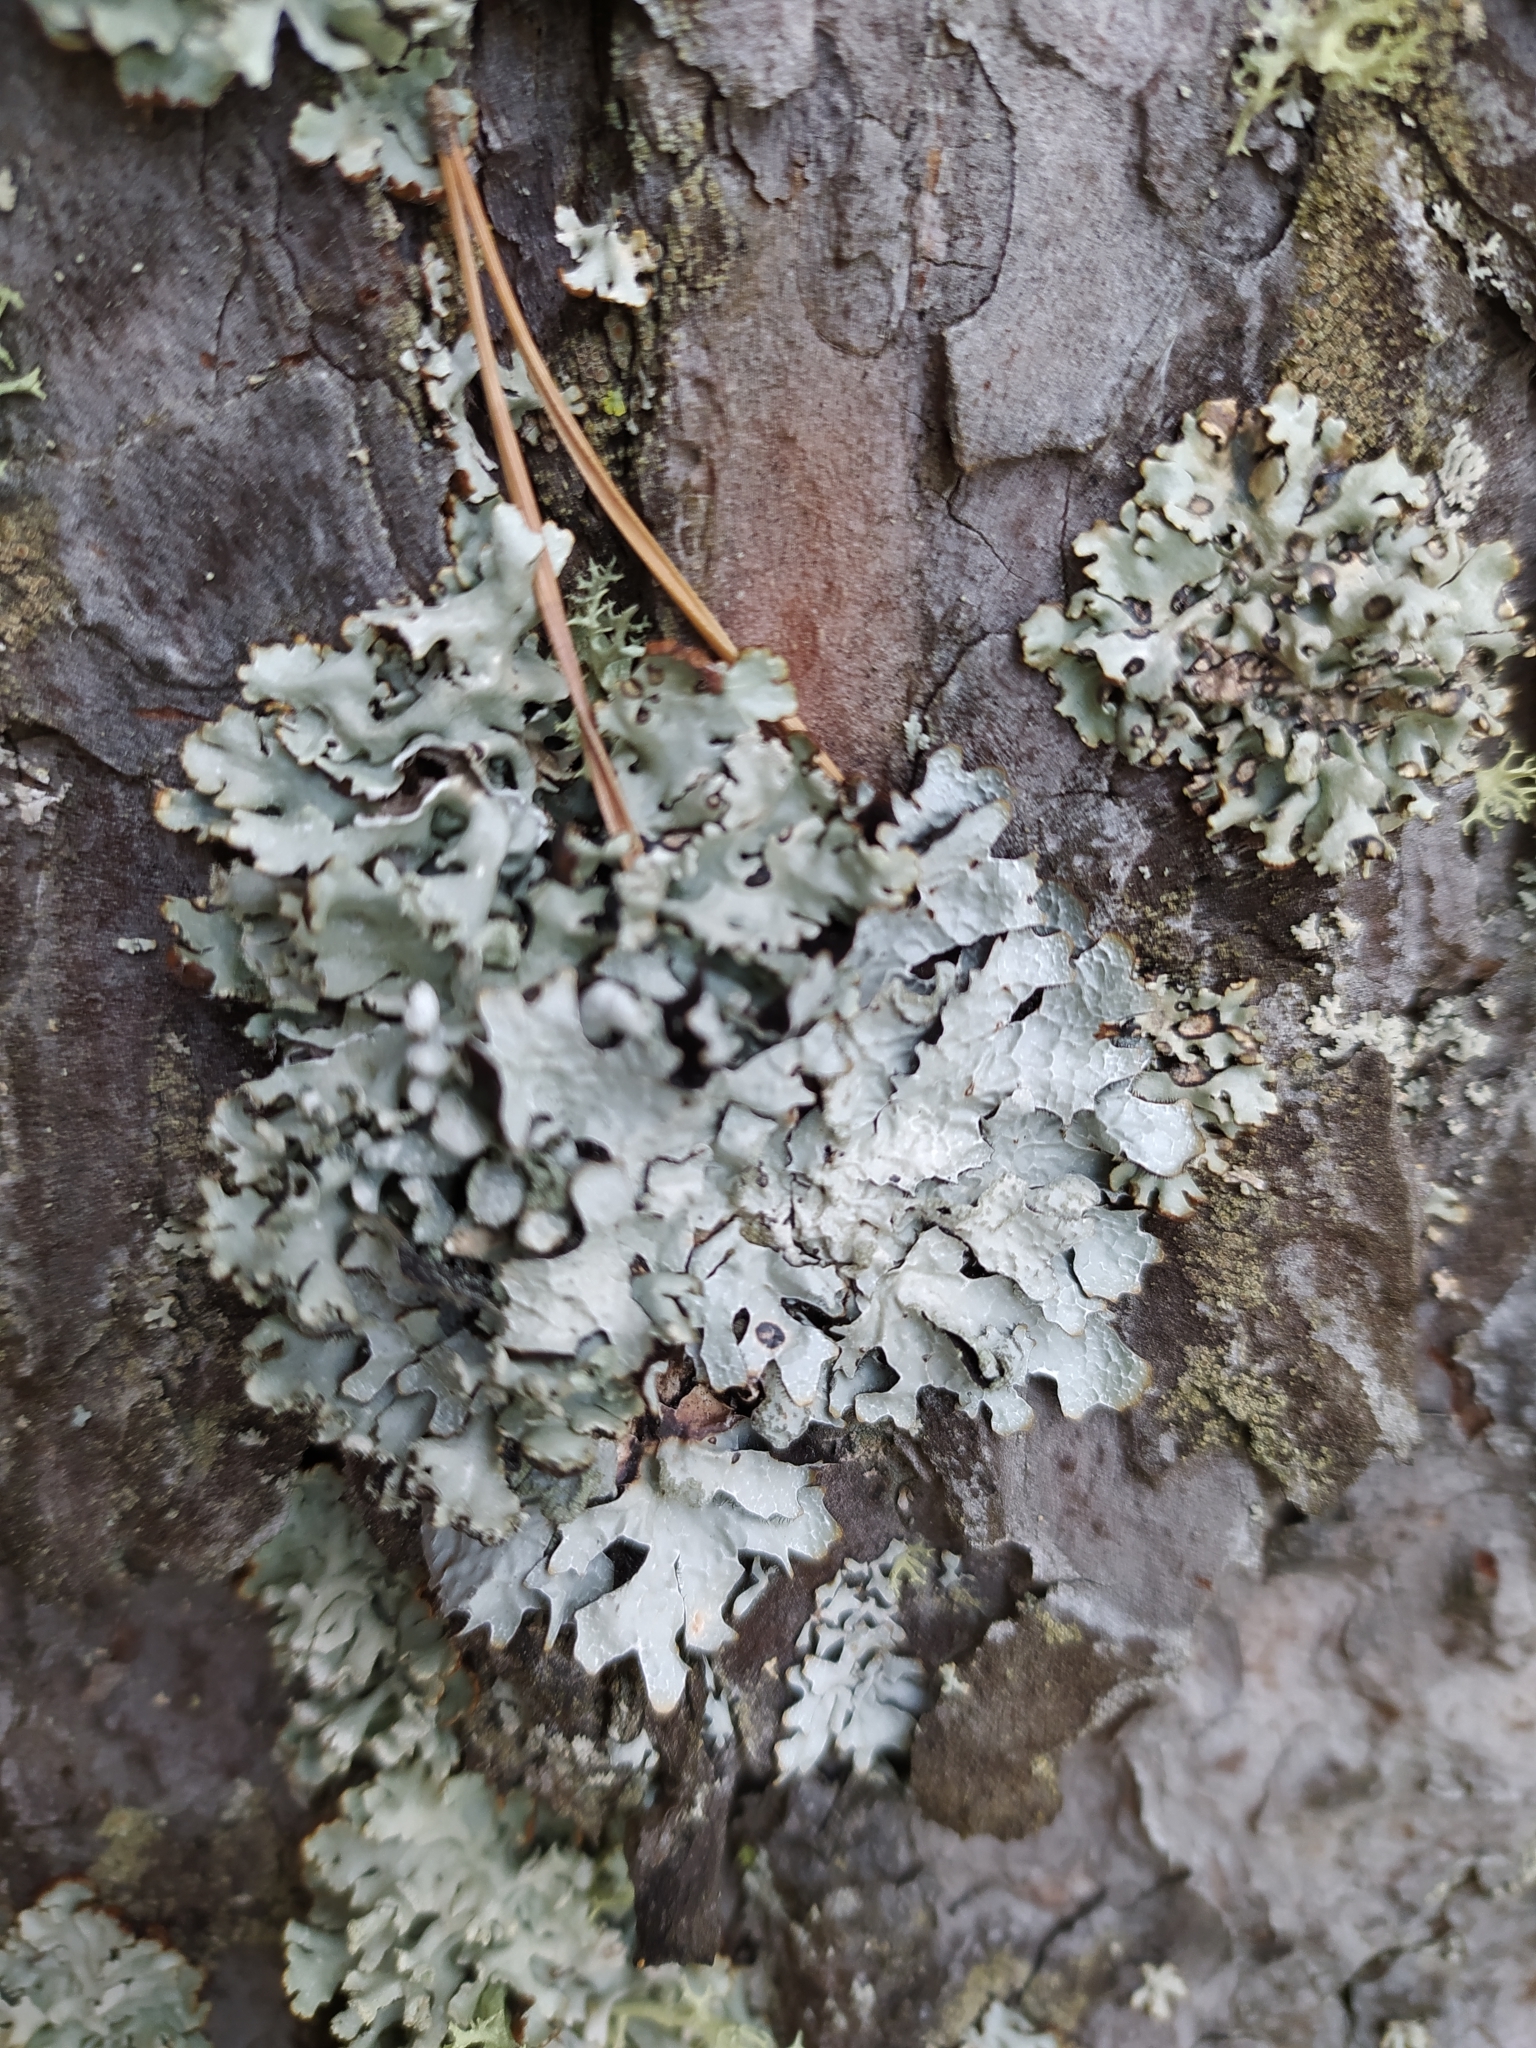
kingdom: Fungi
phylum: Ascomycota
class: Lecanoromycetes
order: Lecanorales
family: Parmeliaceae
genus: Parmelia
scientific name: Parmelia sulcata
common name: Netted shield lichen
